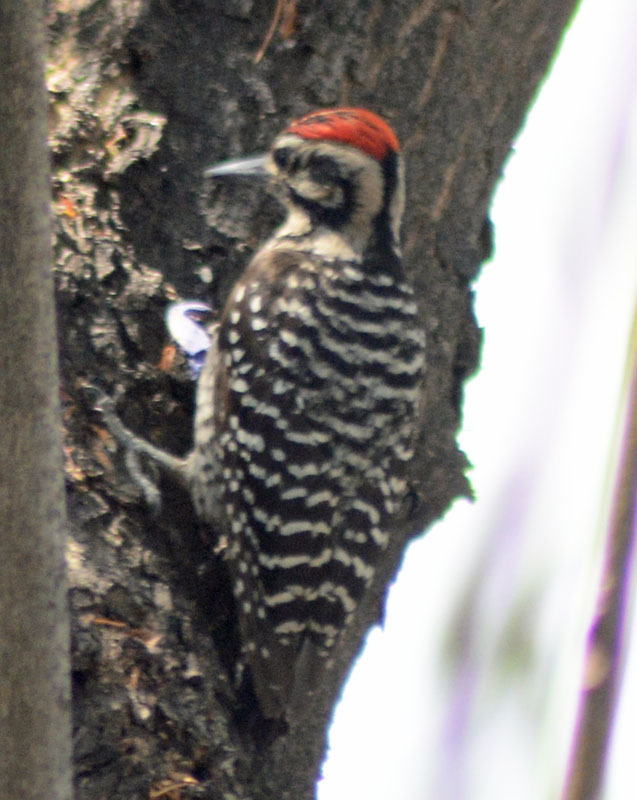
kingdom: Animalia
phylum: Chordata
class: Aves
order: Piciformes
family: Picidae
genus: Dryobates
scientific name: Dryobates scalaris
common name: Ladder-backed woodpecker
